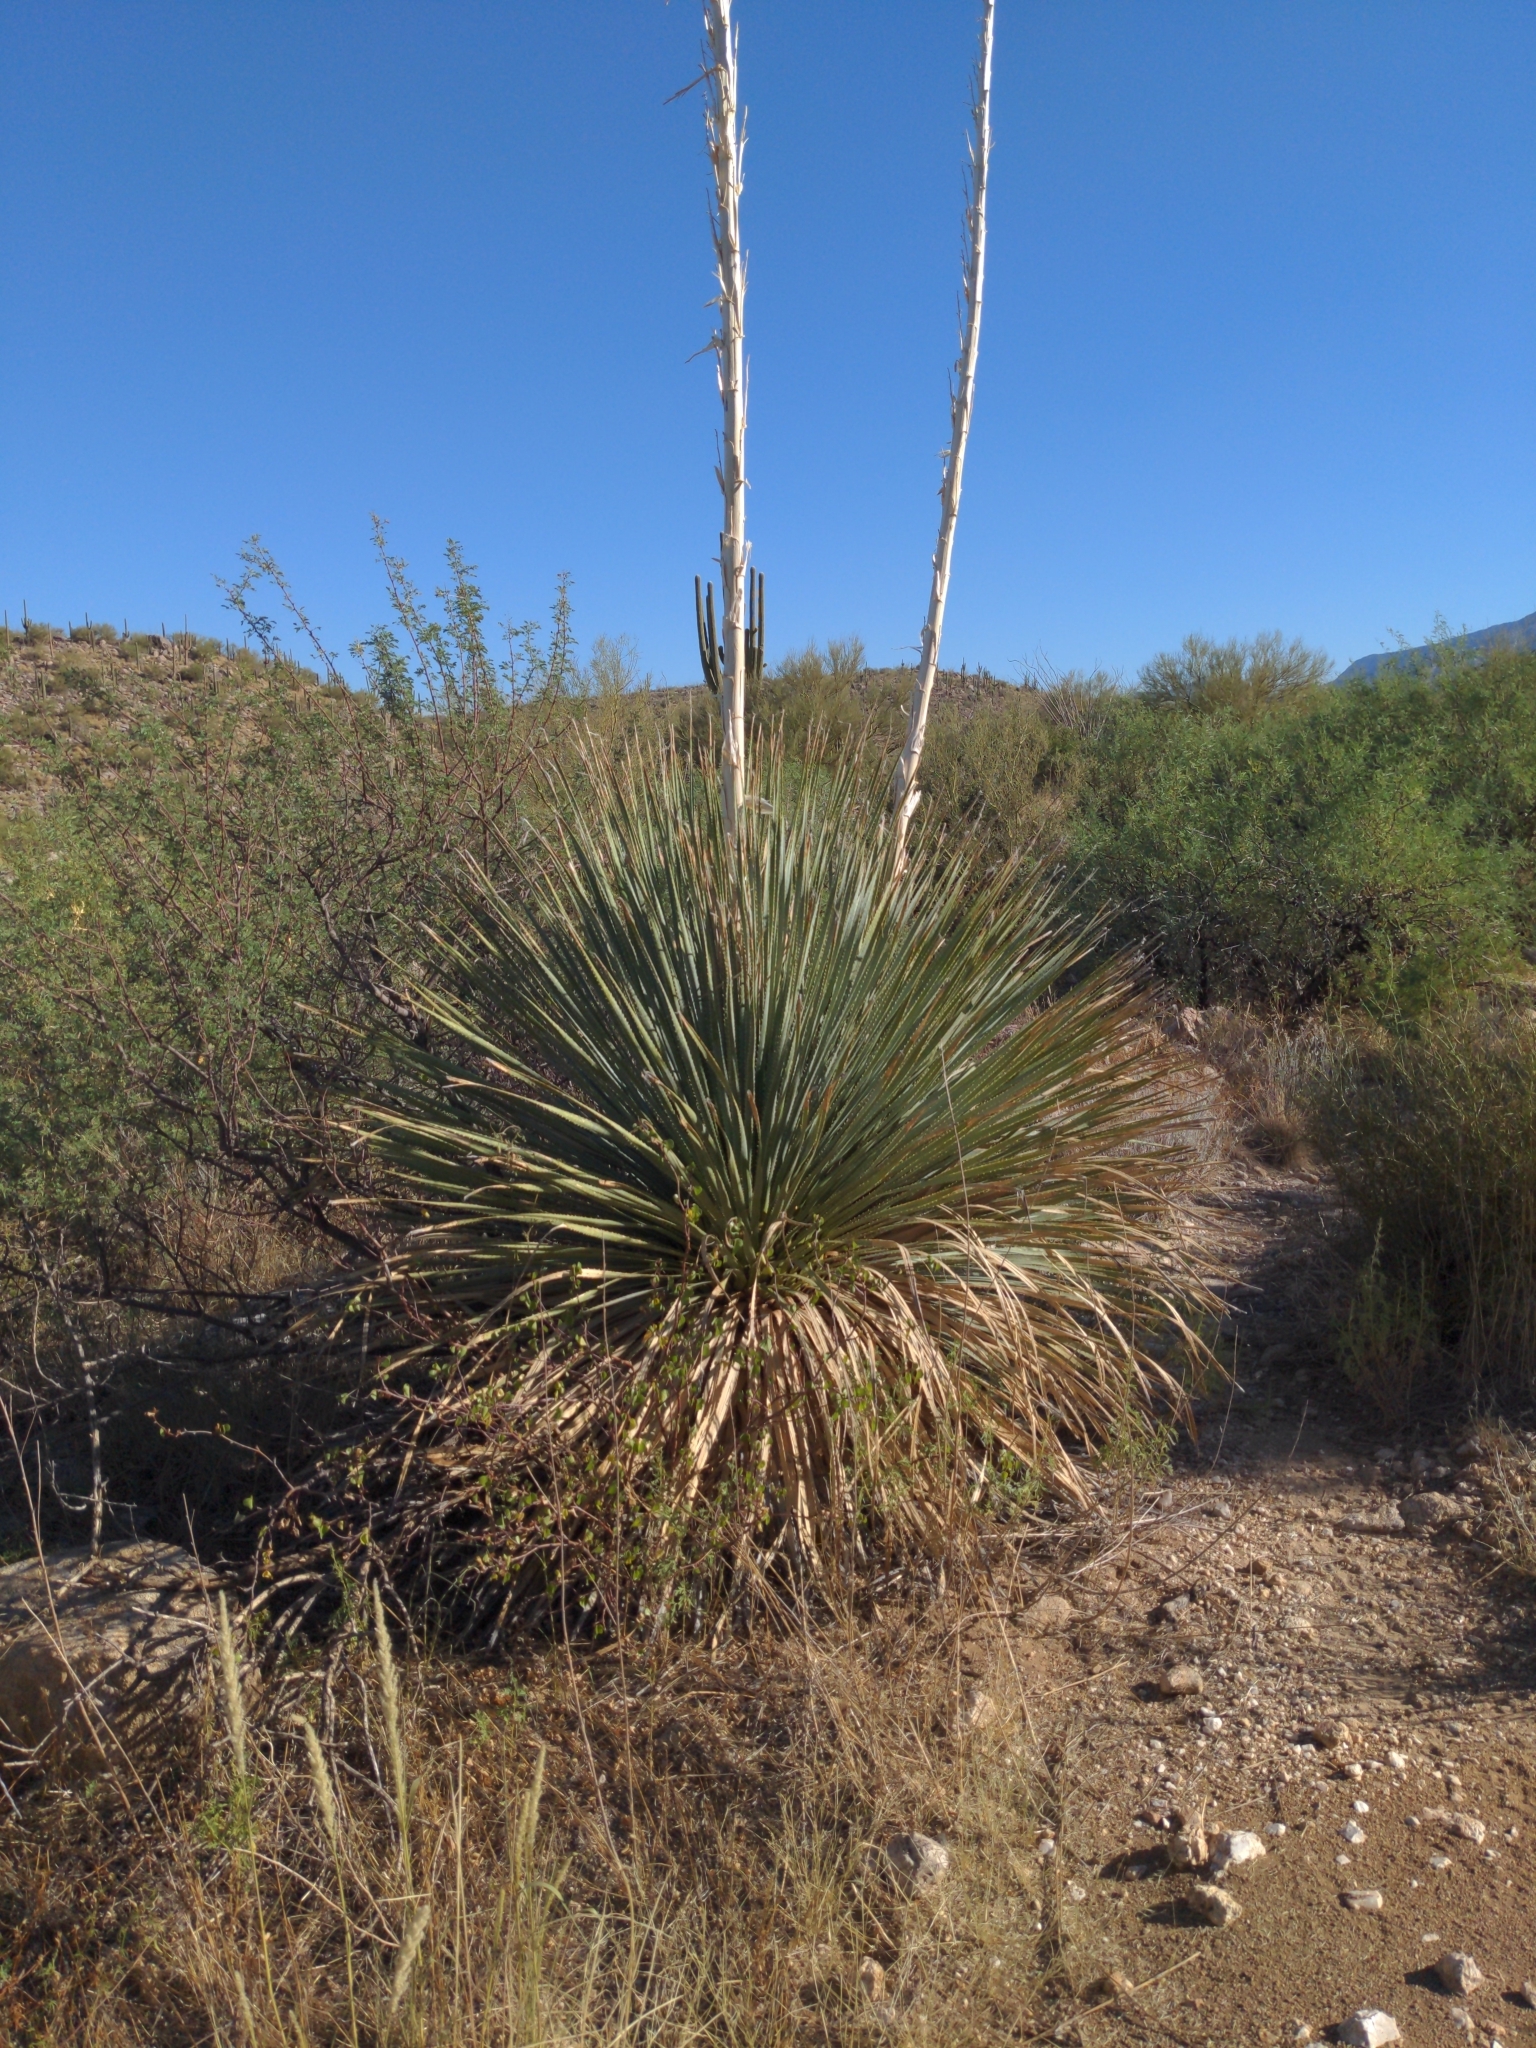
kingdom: Plantae
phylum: Tracheophyta
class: Liliopsida
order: Asparagales
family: Asparagaceae
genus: Dasylirion
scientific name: Dasylirion wheeleri
